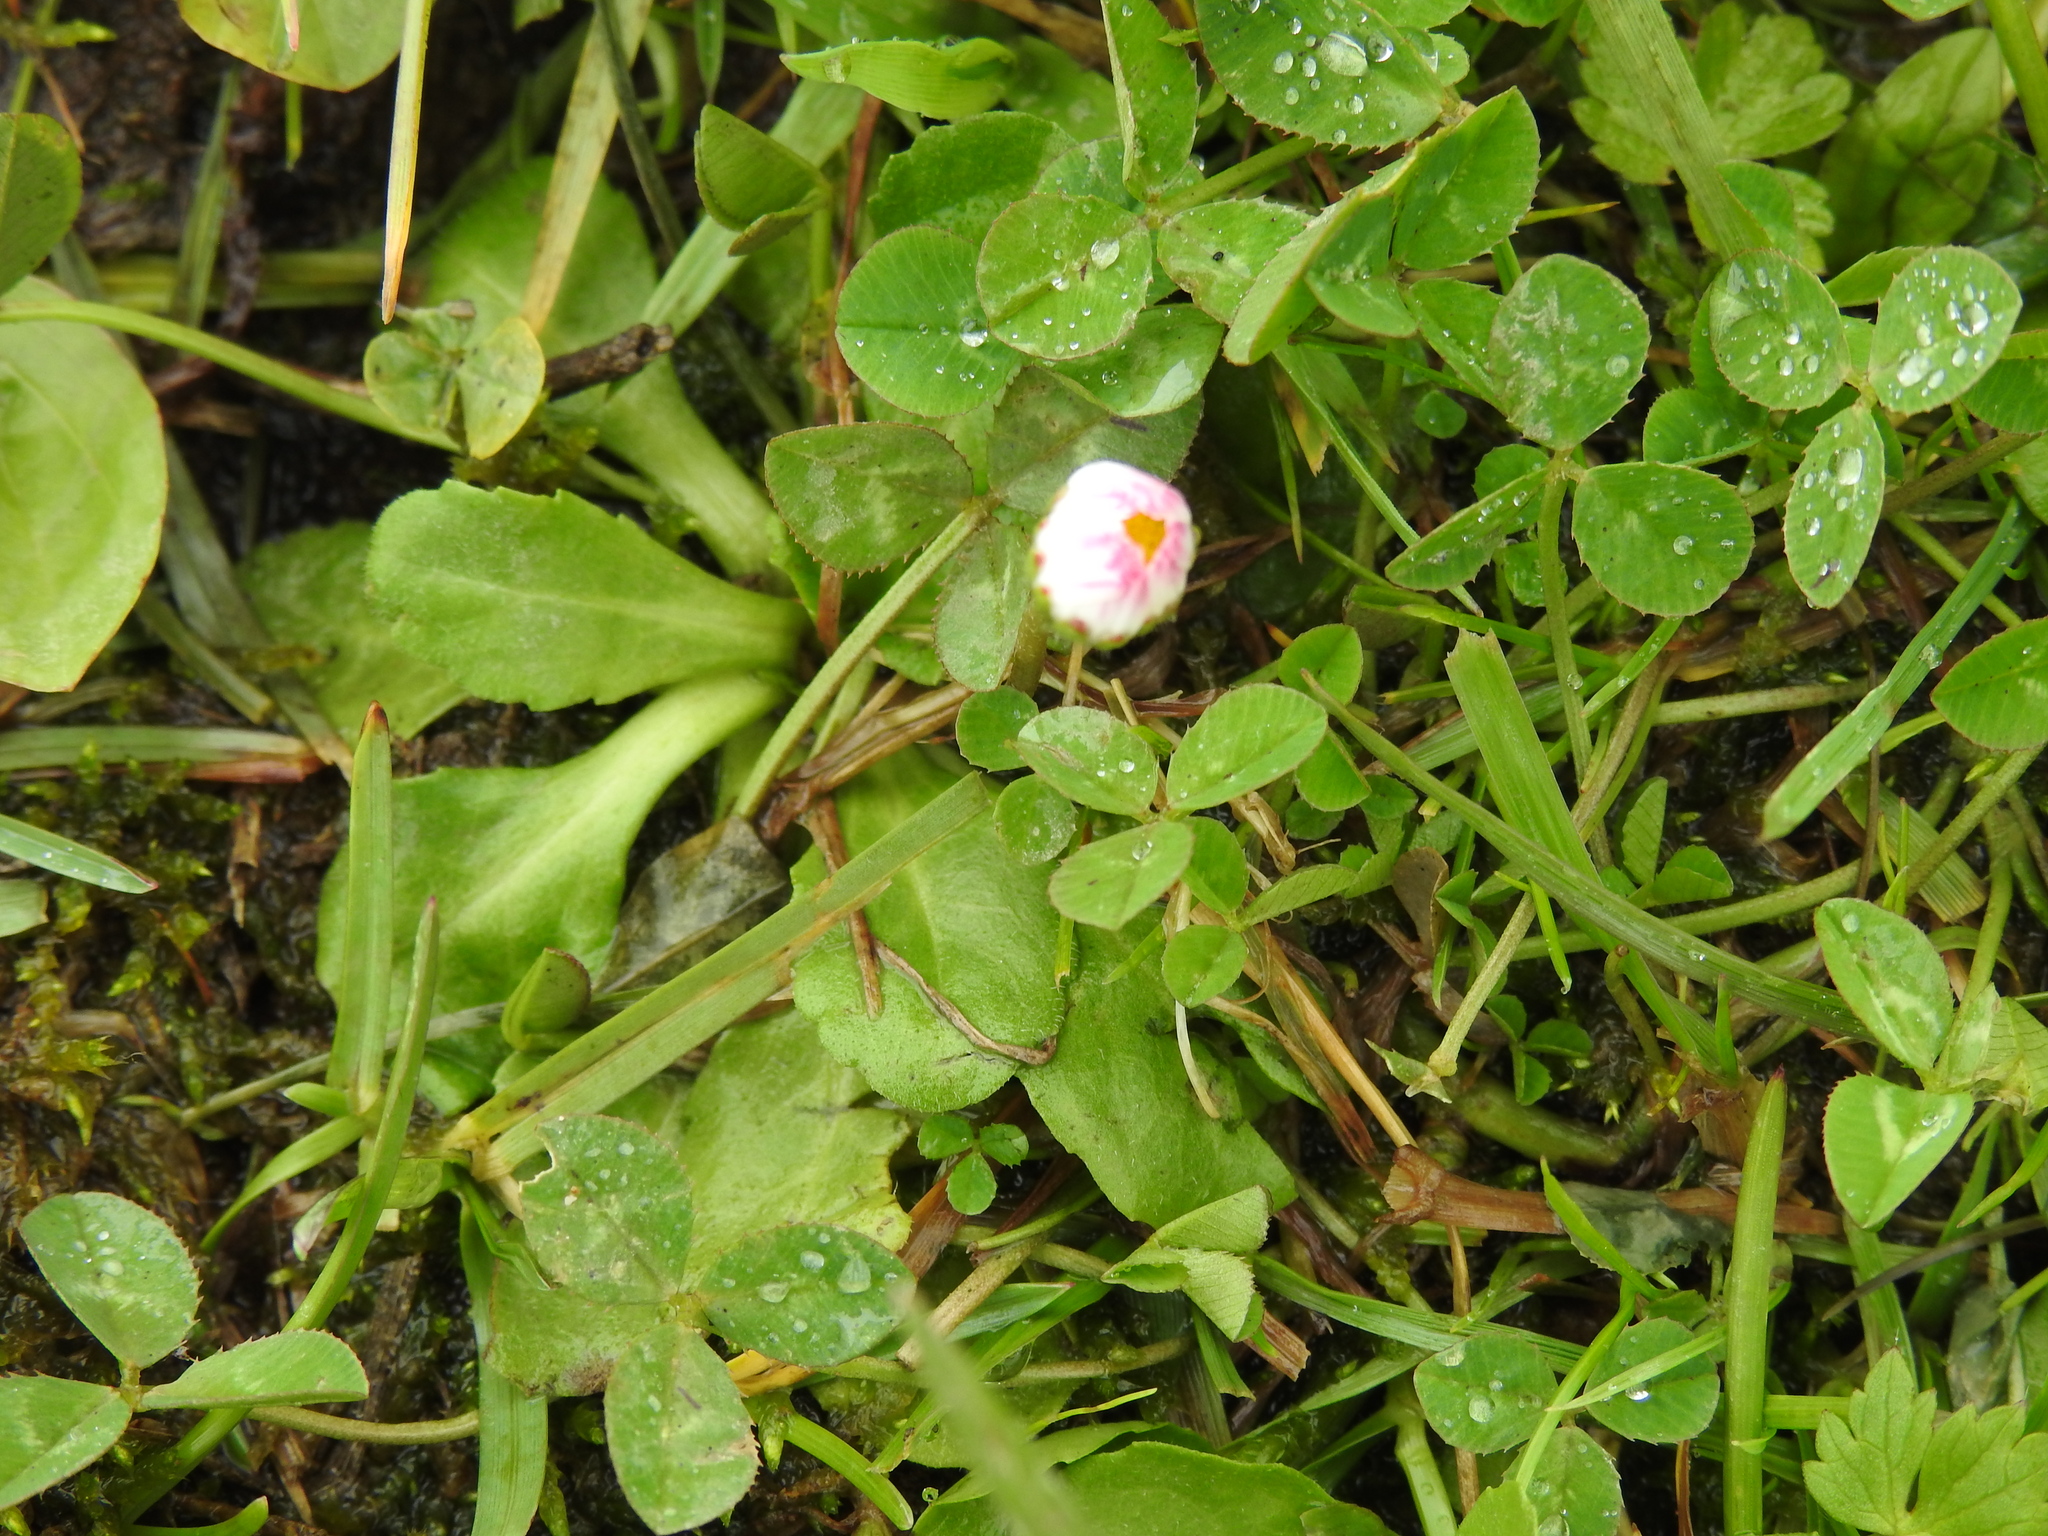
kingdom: Plantae
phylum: Tracheophyta
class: Magnoliopsida
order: Asterales
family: Asteraceae
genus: Bellis
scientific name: Bellis perennis
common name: Lawndaisy
